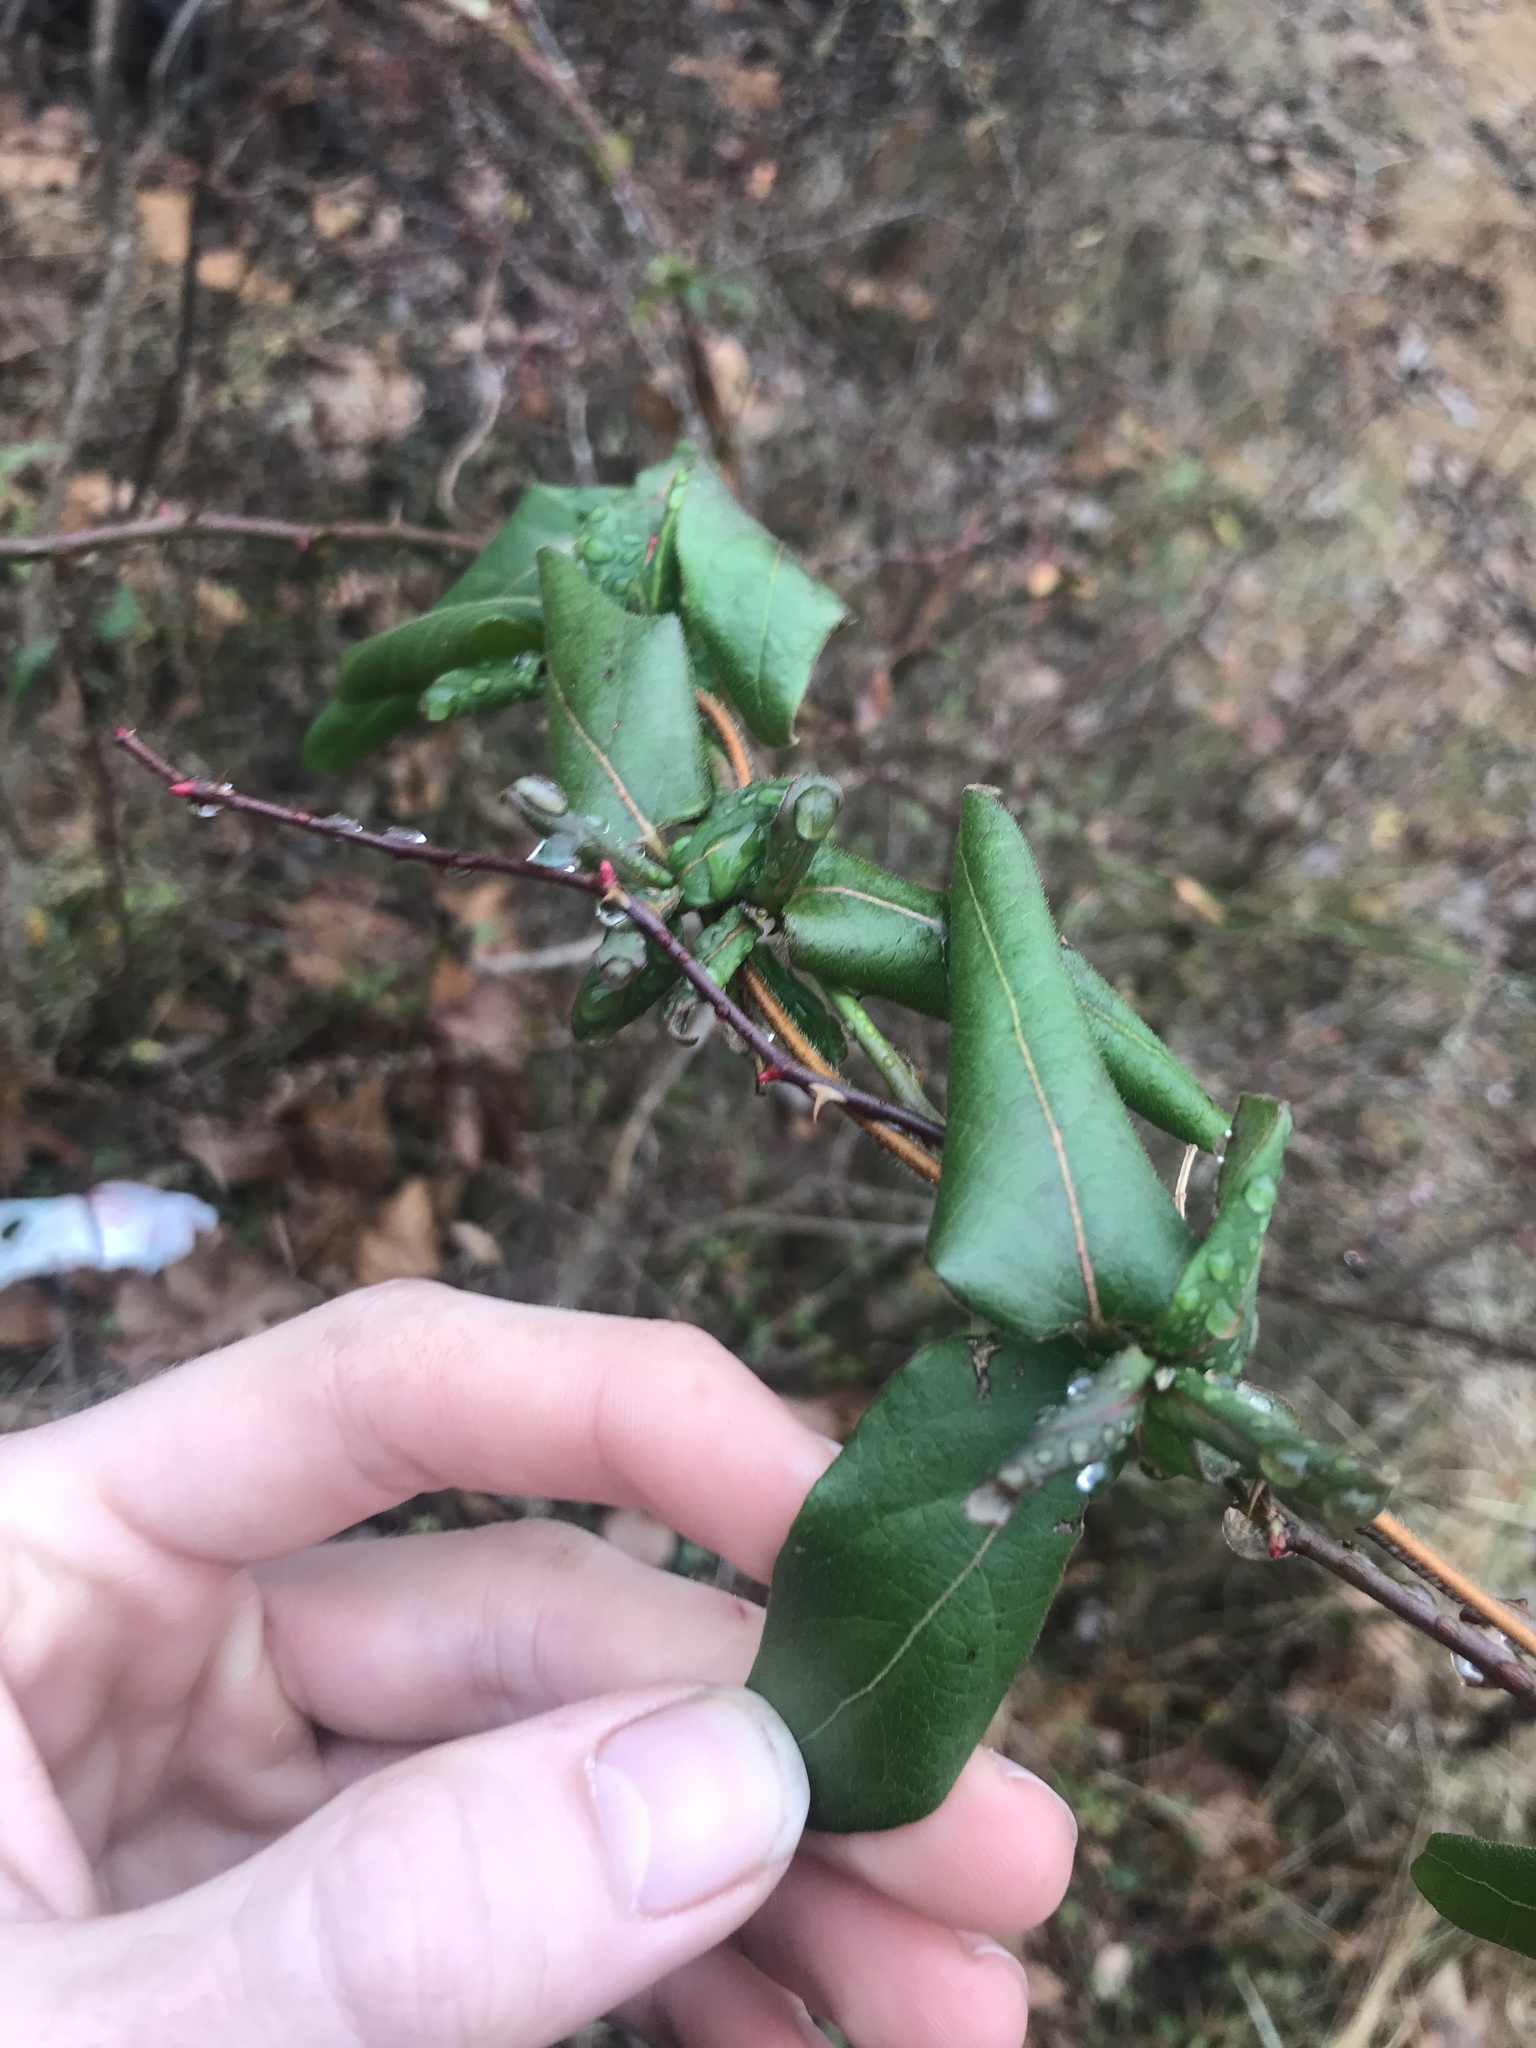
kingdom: Plantae
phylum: Tracheophyta
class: Magnoliopsida
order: Dipsacales
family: Caprifoliaceae
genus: Lonicera
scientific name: Lonicera japonica
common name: Japanese honeysuckle
